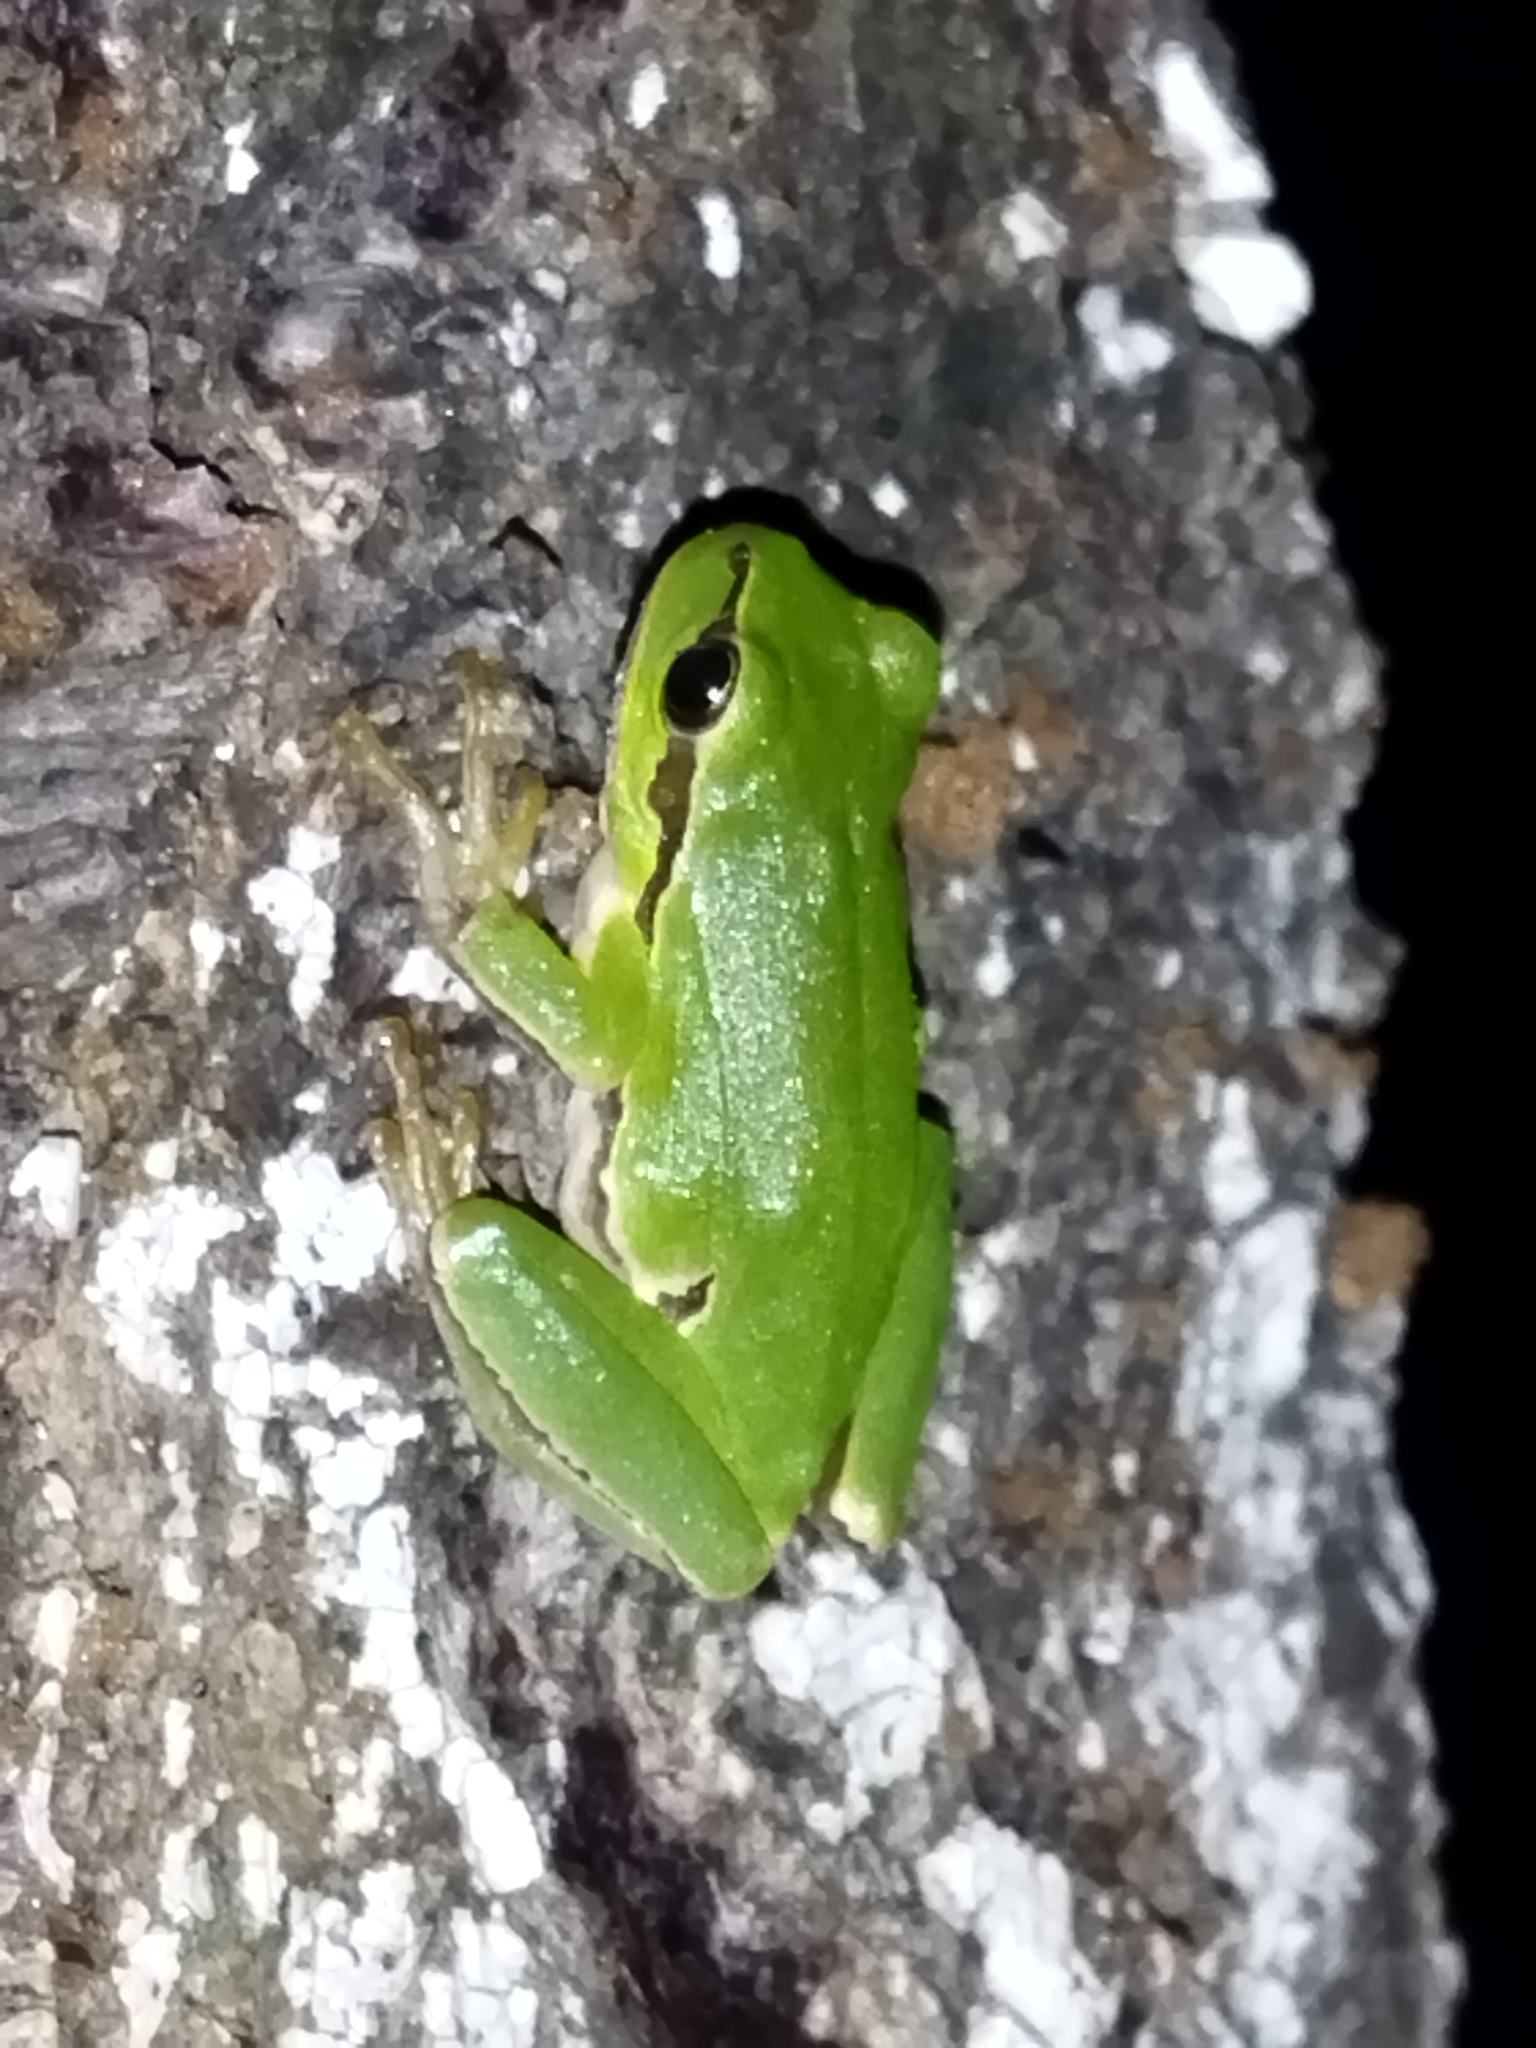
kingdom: Animalia
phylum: Chordata
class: Amphibia
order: Anura
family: Hylidae
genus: Hyla
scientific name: Hyla orientalis
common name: Caucasian treefrog
